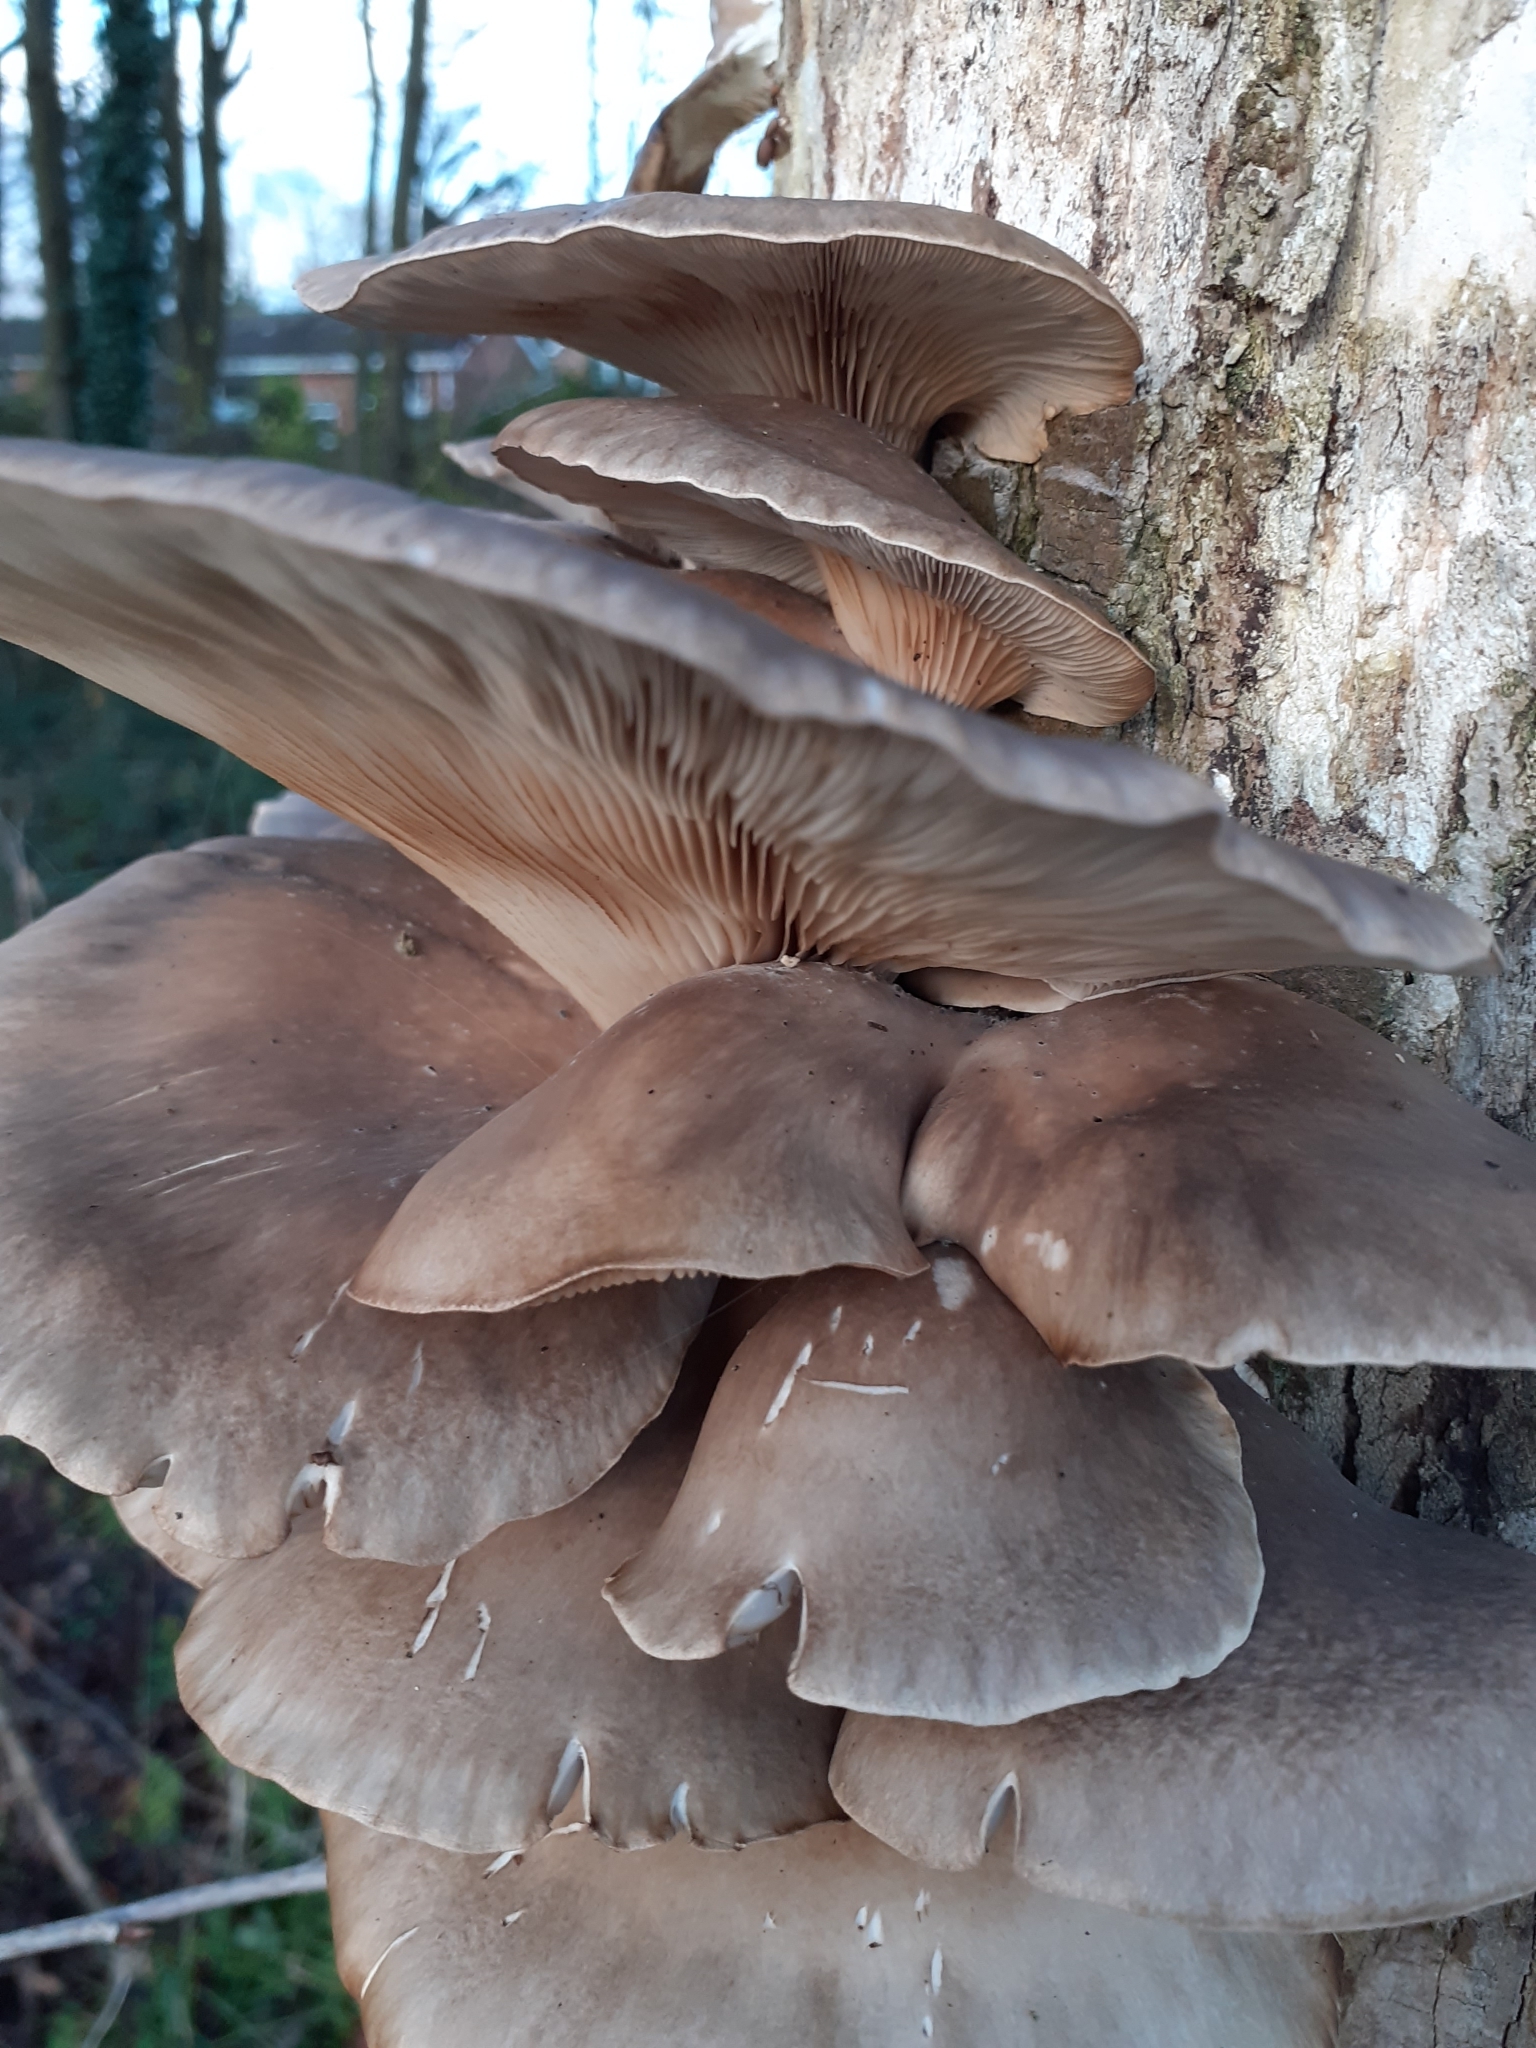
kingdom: Fungi
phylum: Basidiomycota
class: Agaricomycetes
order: Agaricales
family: Pleurotaceae
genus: Pleurotus
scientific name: Pleurotus ostreatus
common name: Oyster mushroom
